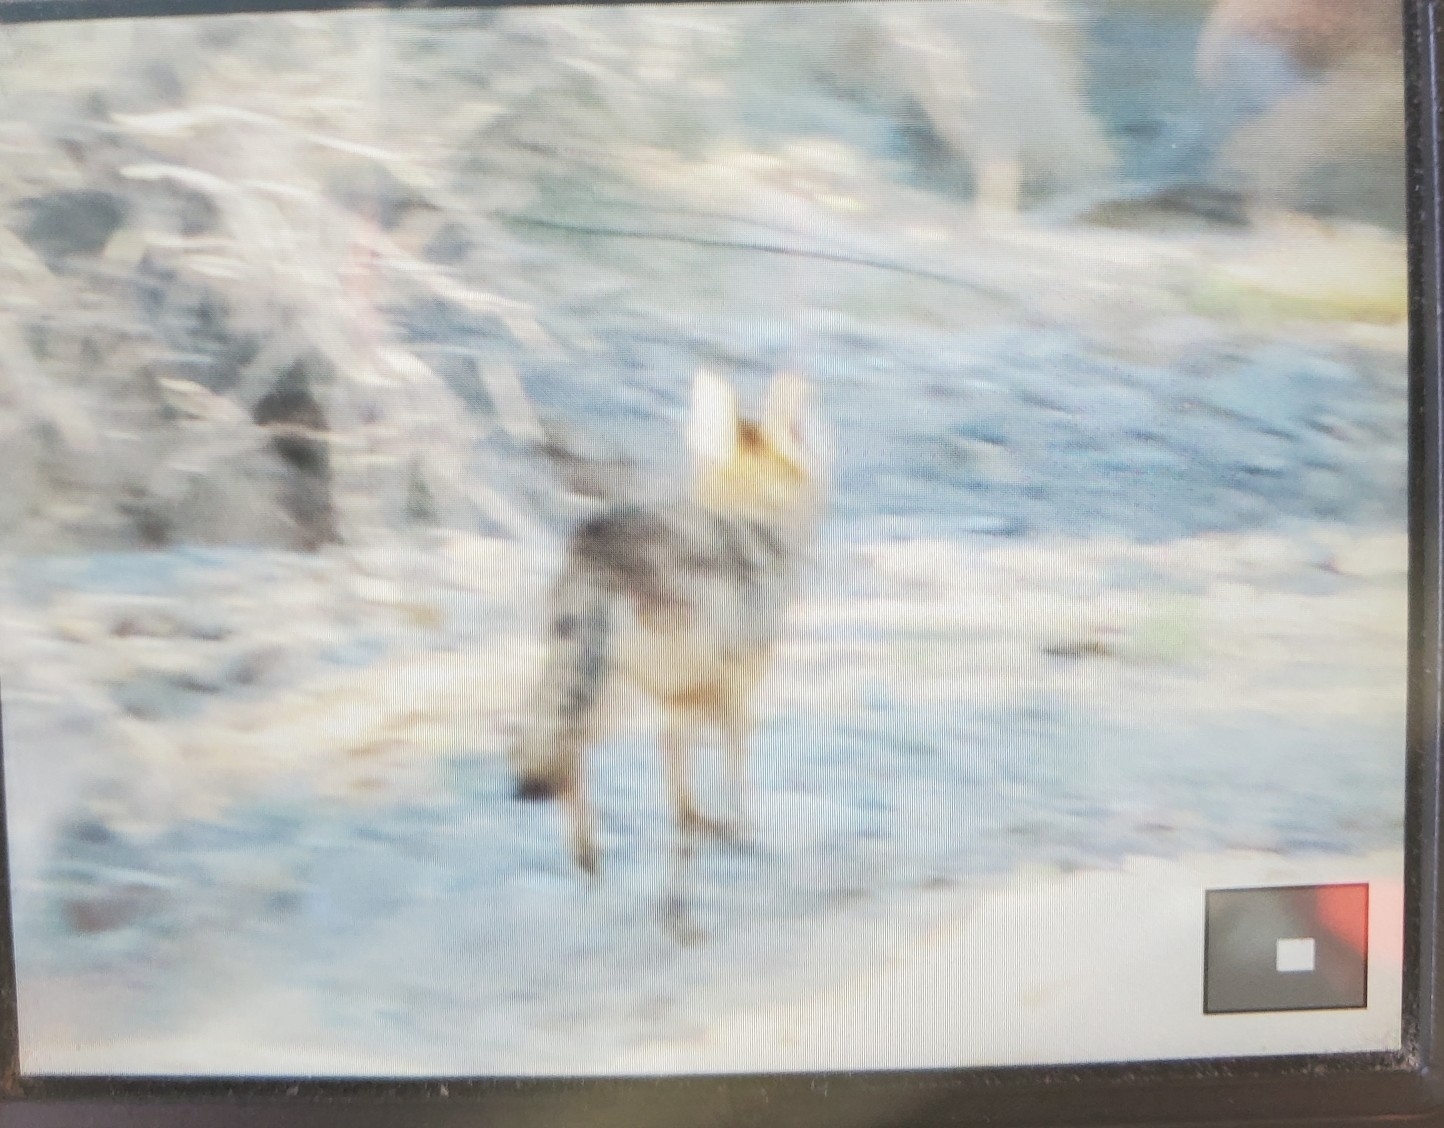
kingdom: Animalia
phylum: Chordata
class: Mammalia
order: Carnivora
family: Canidae
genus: Canis
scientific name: Canis latrans
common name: Coyote
